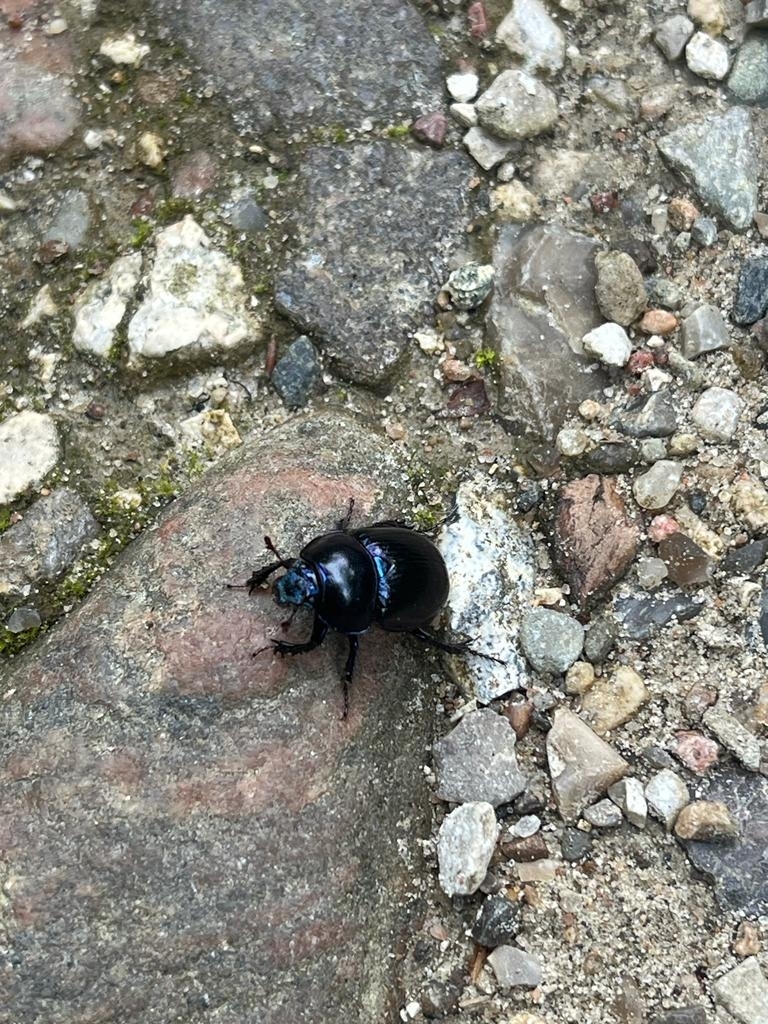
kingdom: Animalia
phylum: Arthropoda
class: Insecta
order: Coleoptera
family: Geotrupidae
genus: Anoplotrupes
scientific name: Anoplotrupes stercorosus
